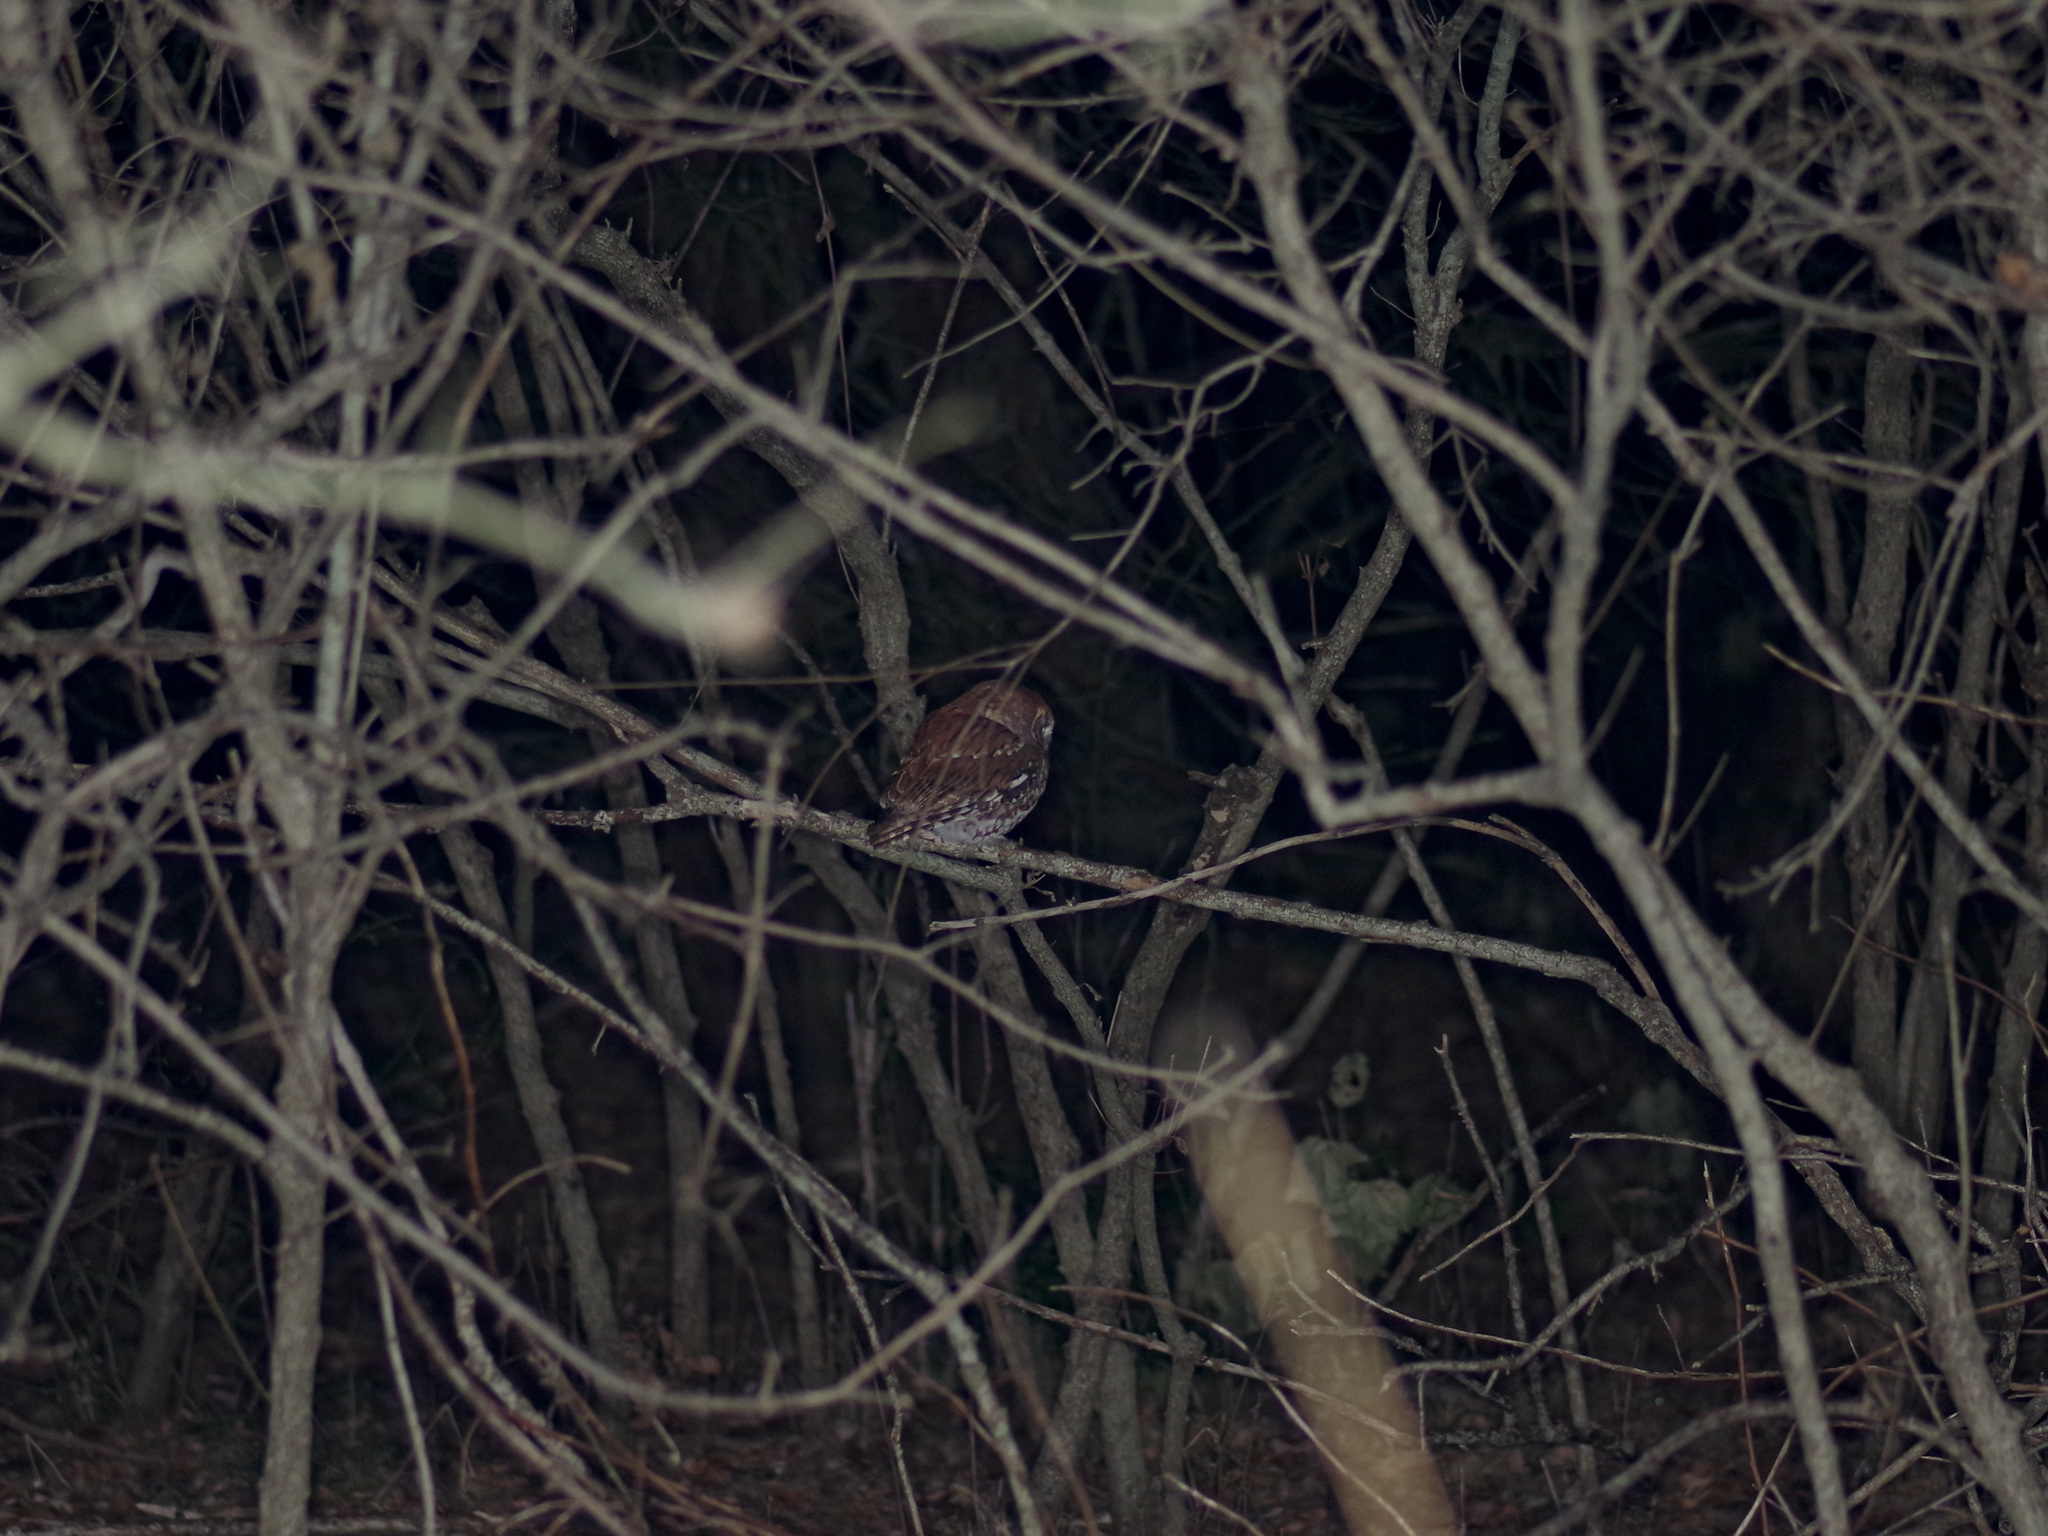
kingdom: Animalia
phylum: Chordata
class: Aves
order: Strigiformes
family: Strigidae
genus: Megascops
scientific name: Megascops asio
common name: Eastern screech-owl
